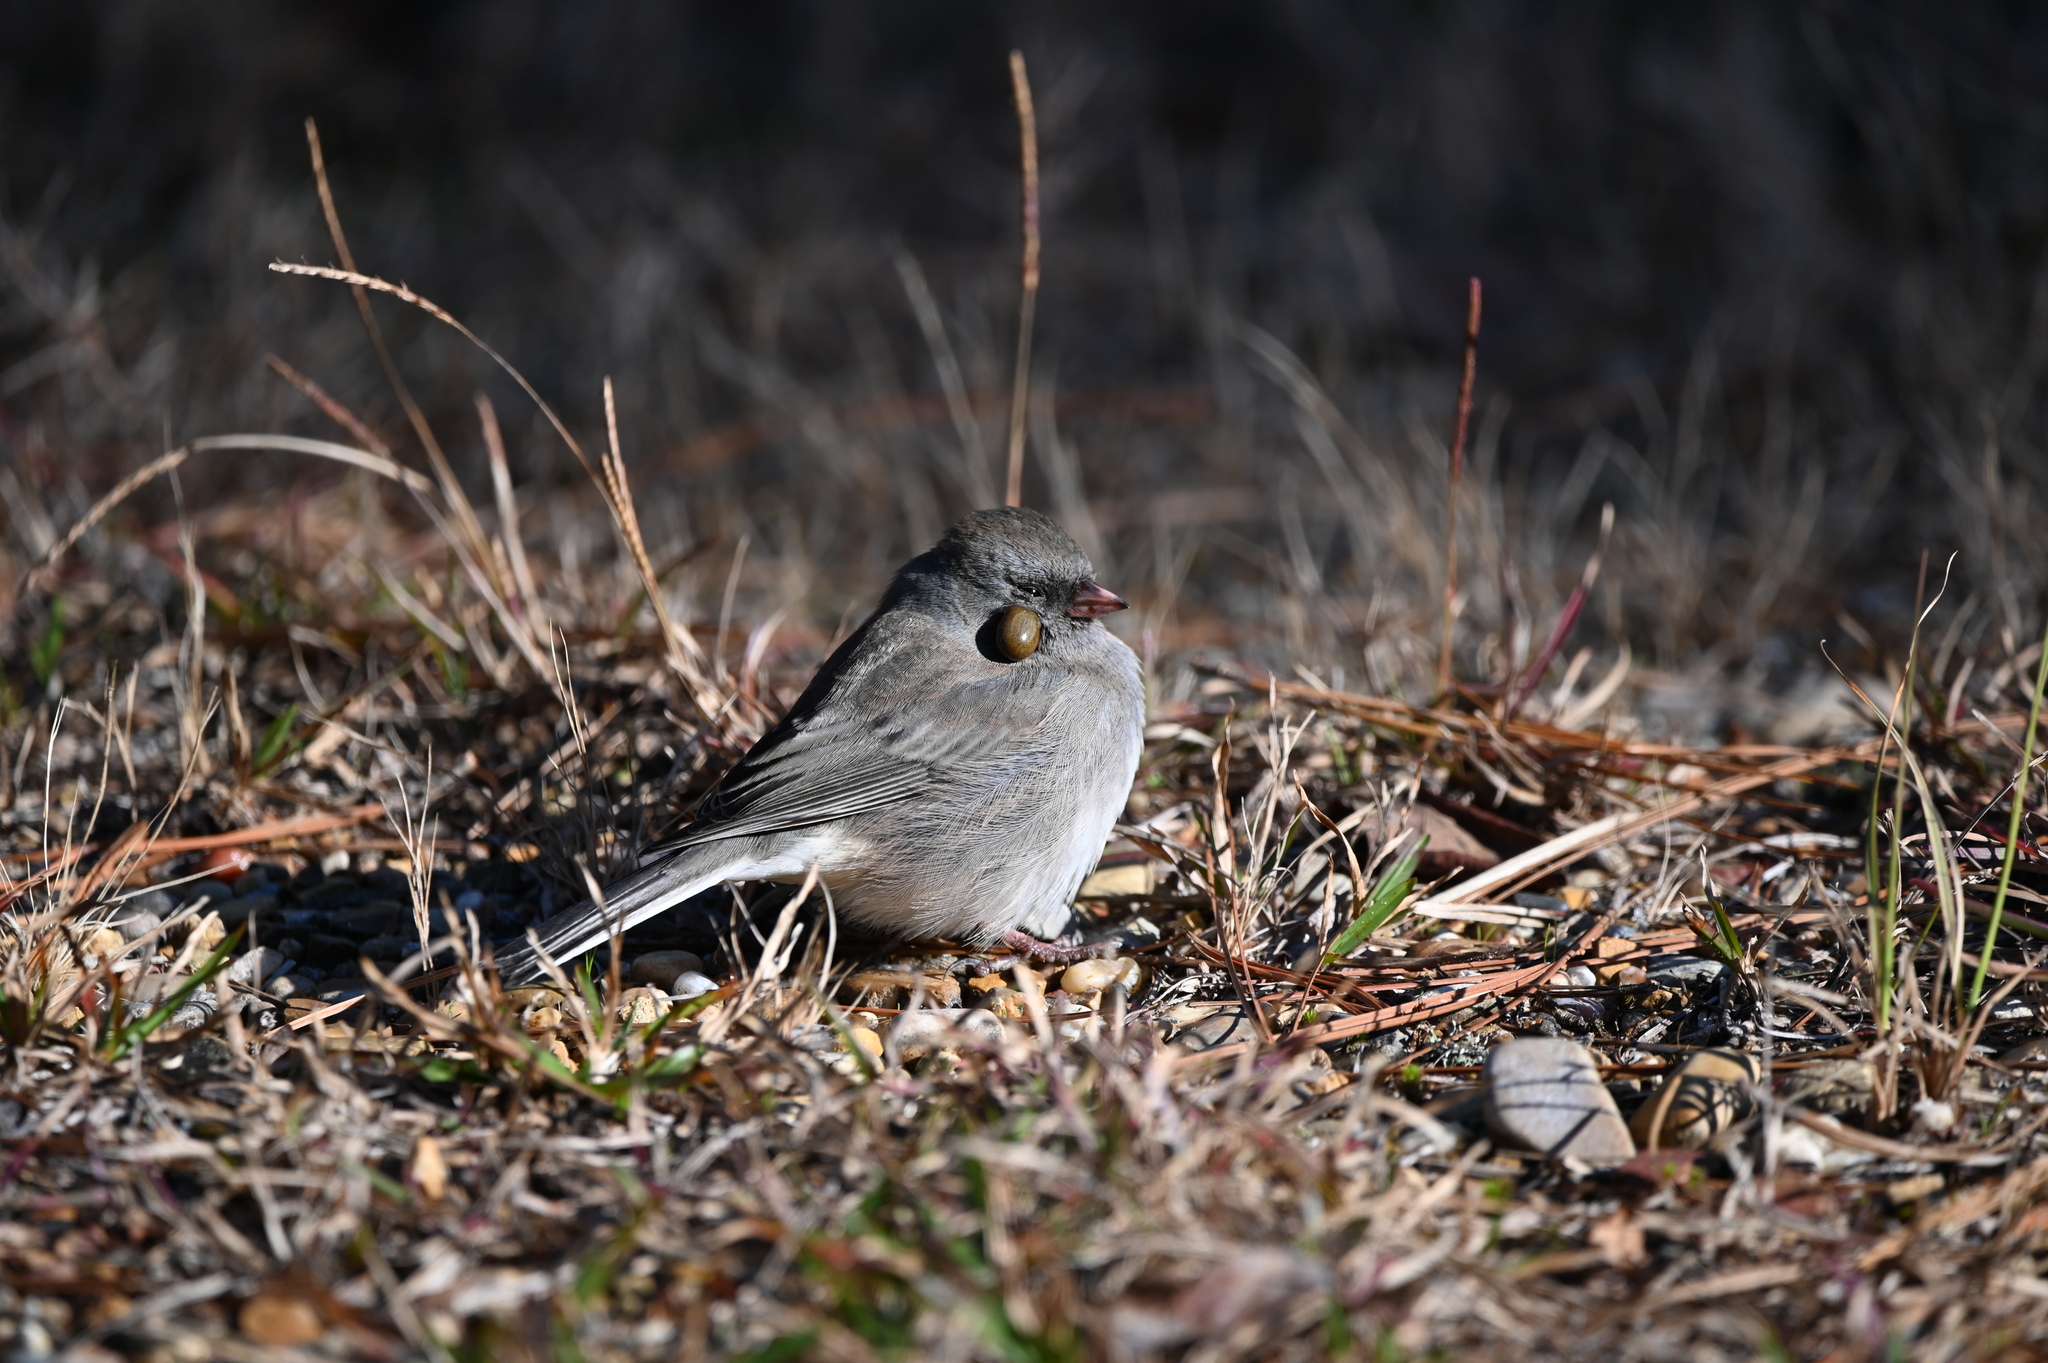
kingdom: Animalia
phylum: Chordata
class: Aves
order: Passeriformes
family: Passerellidae
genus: Junco
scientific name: Junco hyemalis
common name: Dark-eyed junco
